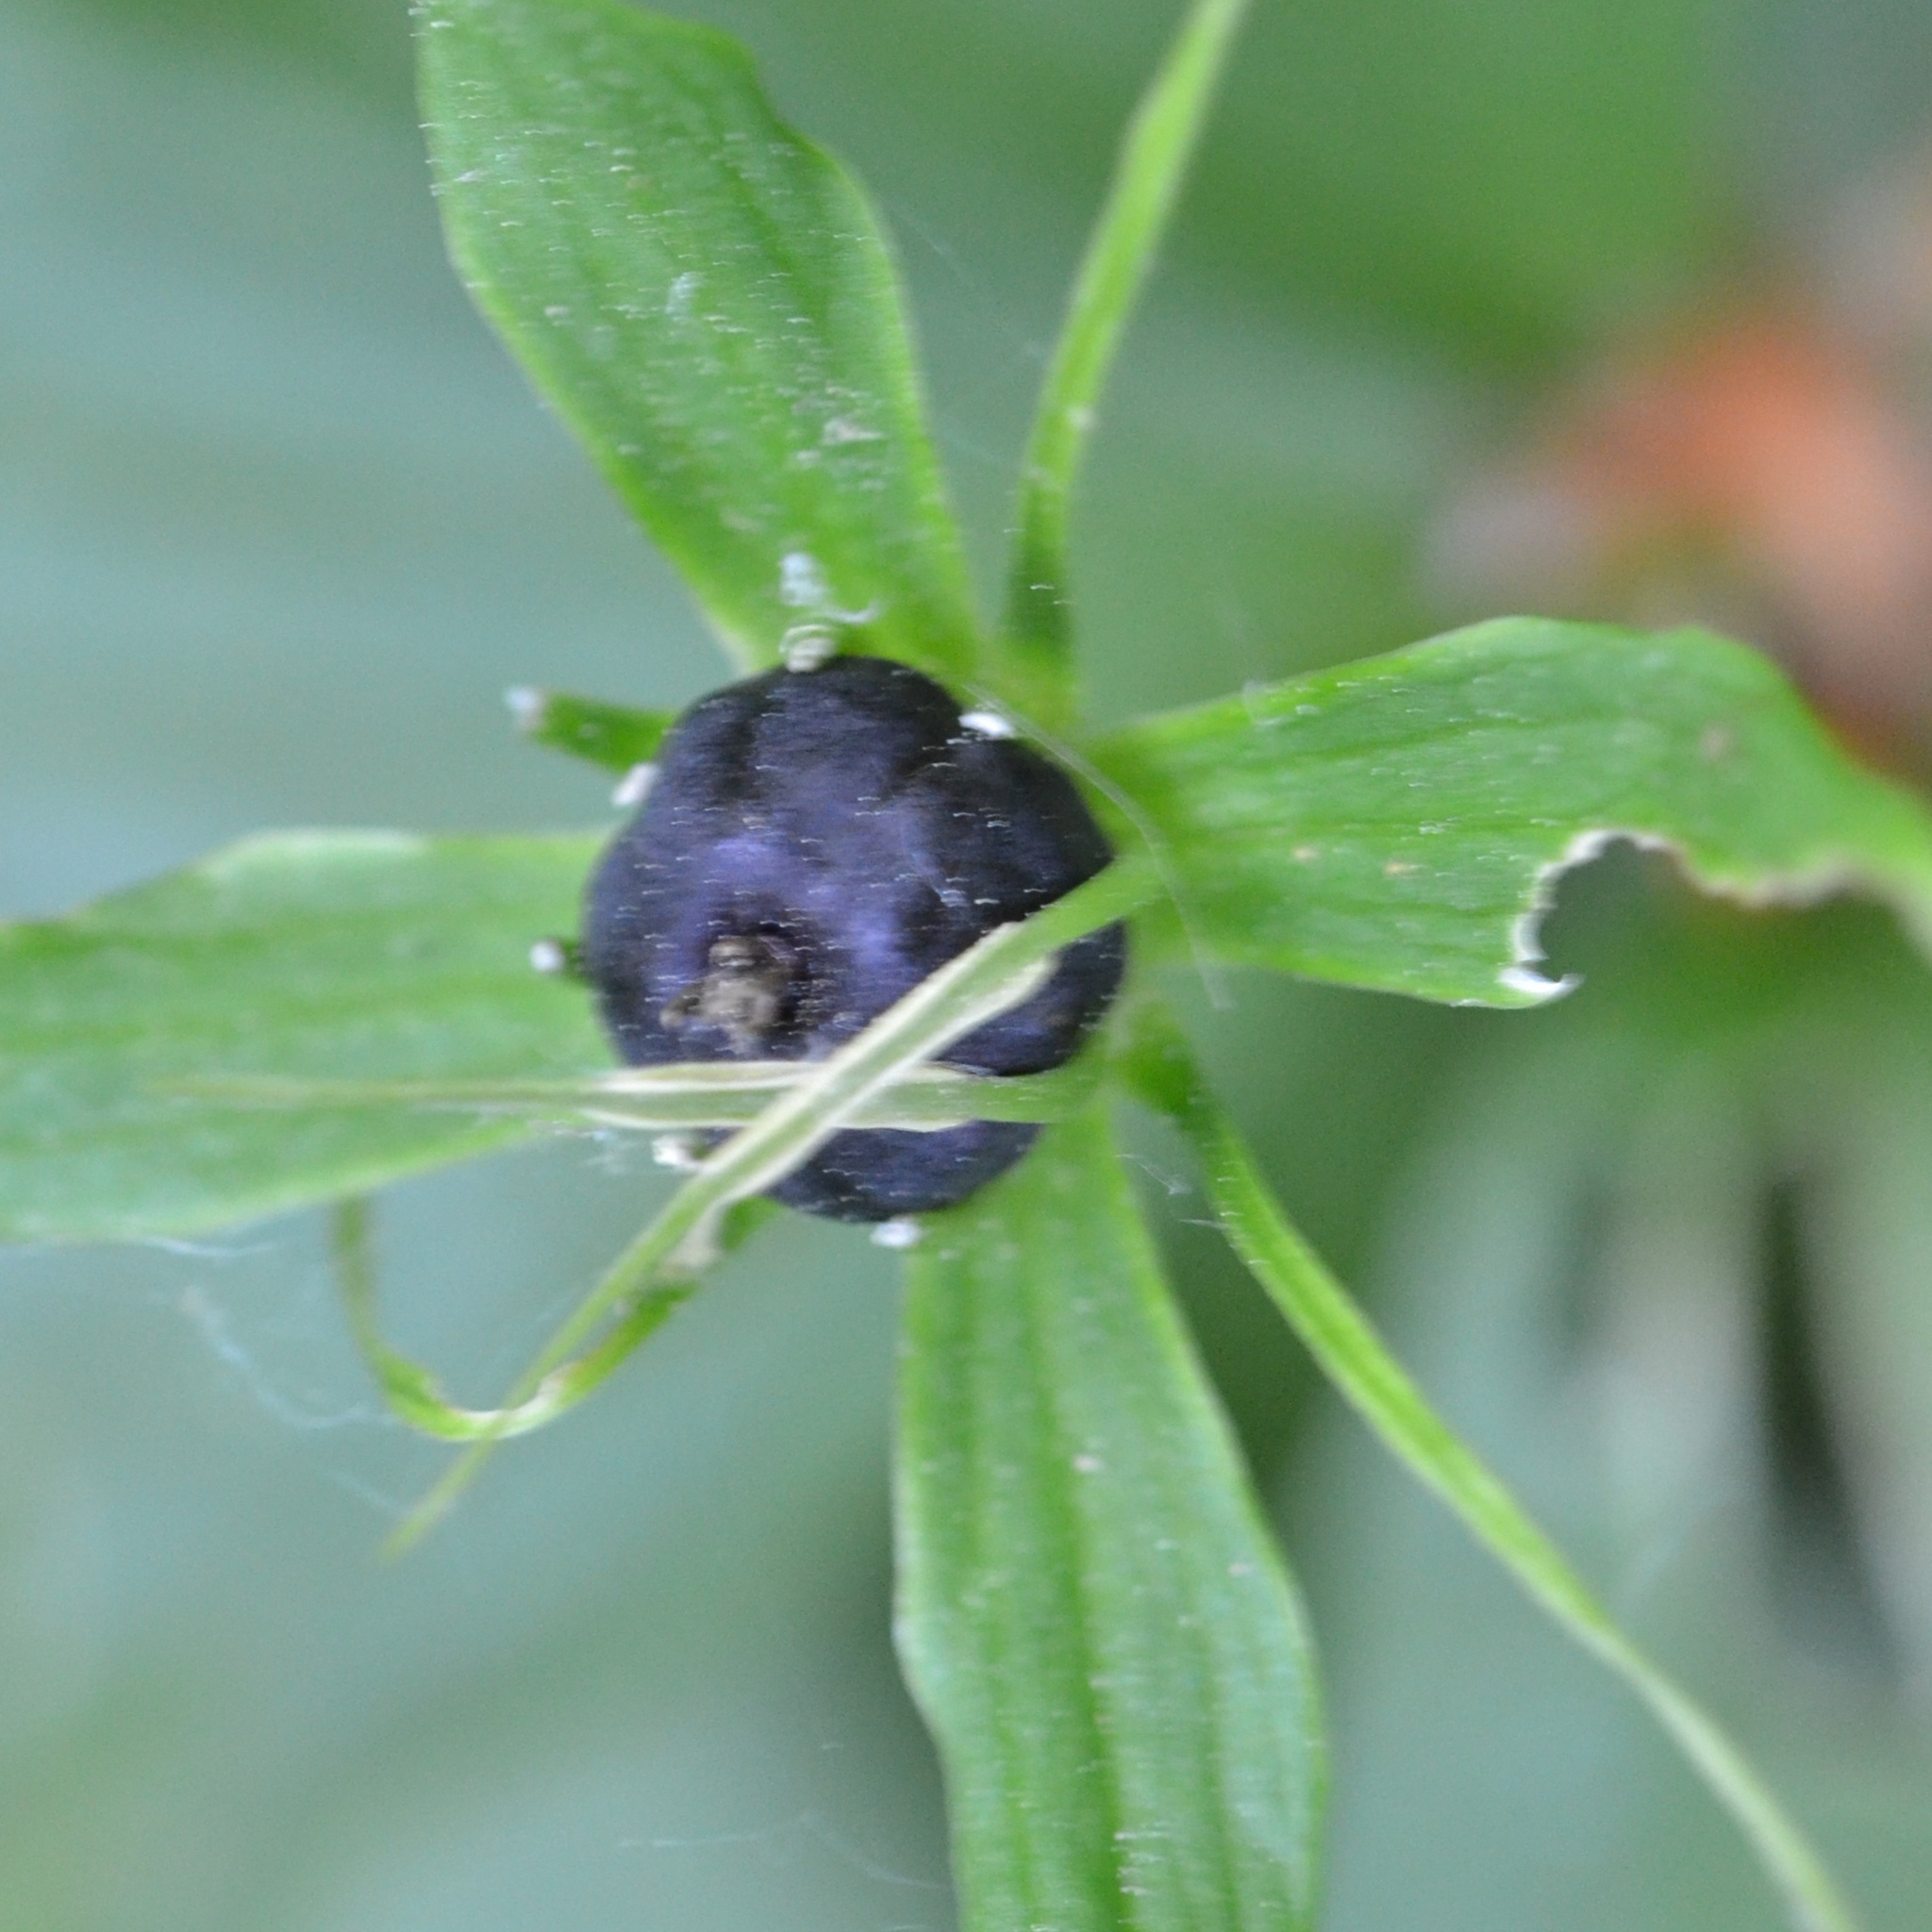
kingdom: Plantae
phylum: Tracheophyta
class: Liliopsida
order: Liliales
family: Melanthiaceae
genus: Paris
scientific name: Paris quadrifolia
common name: Herb-paris
